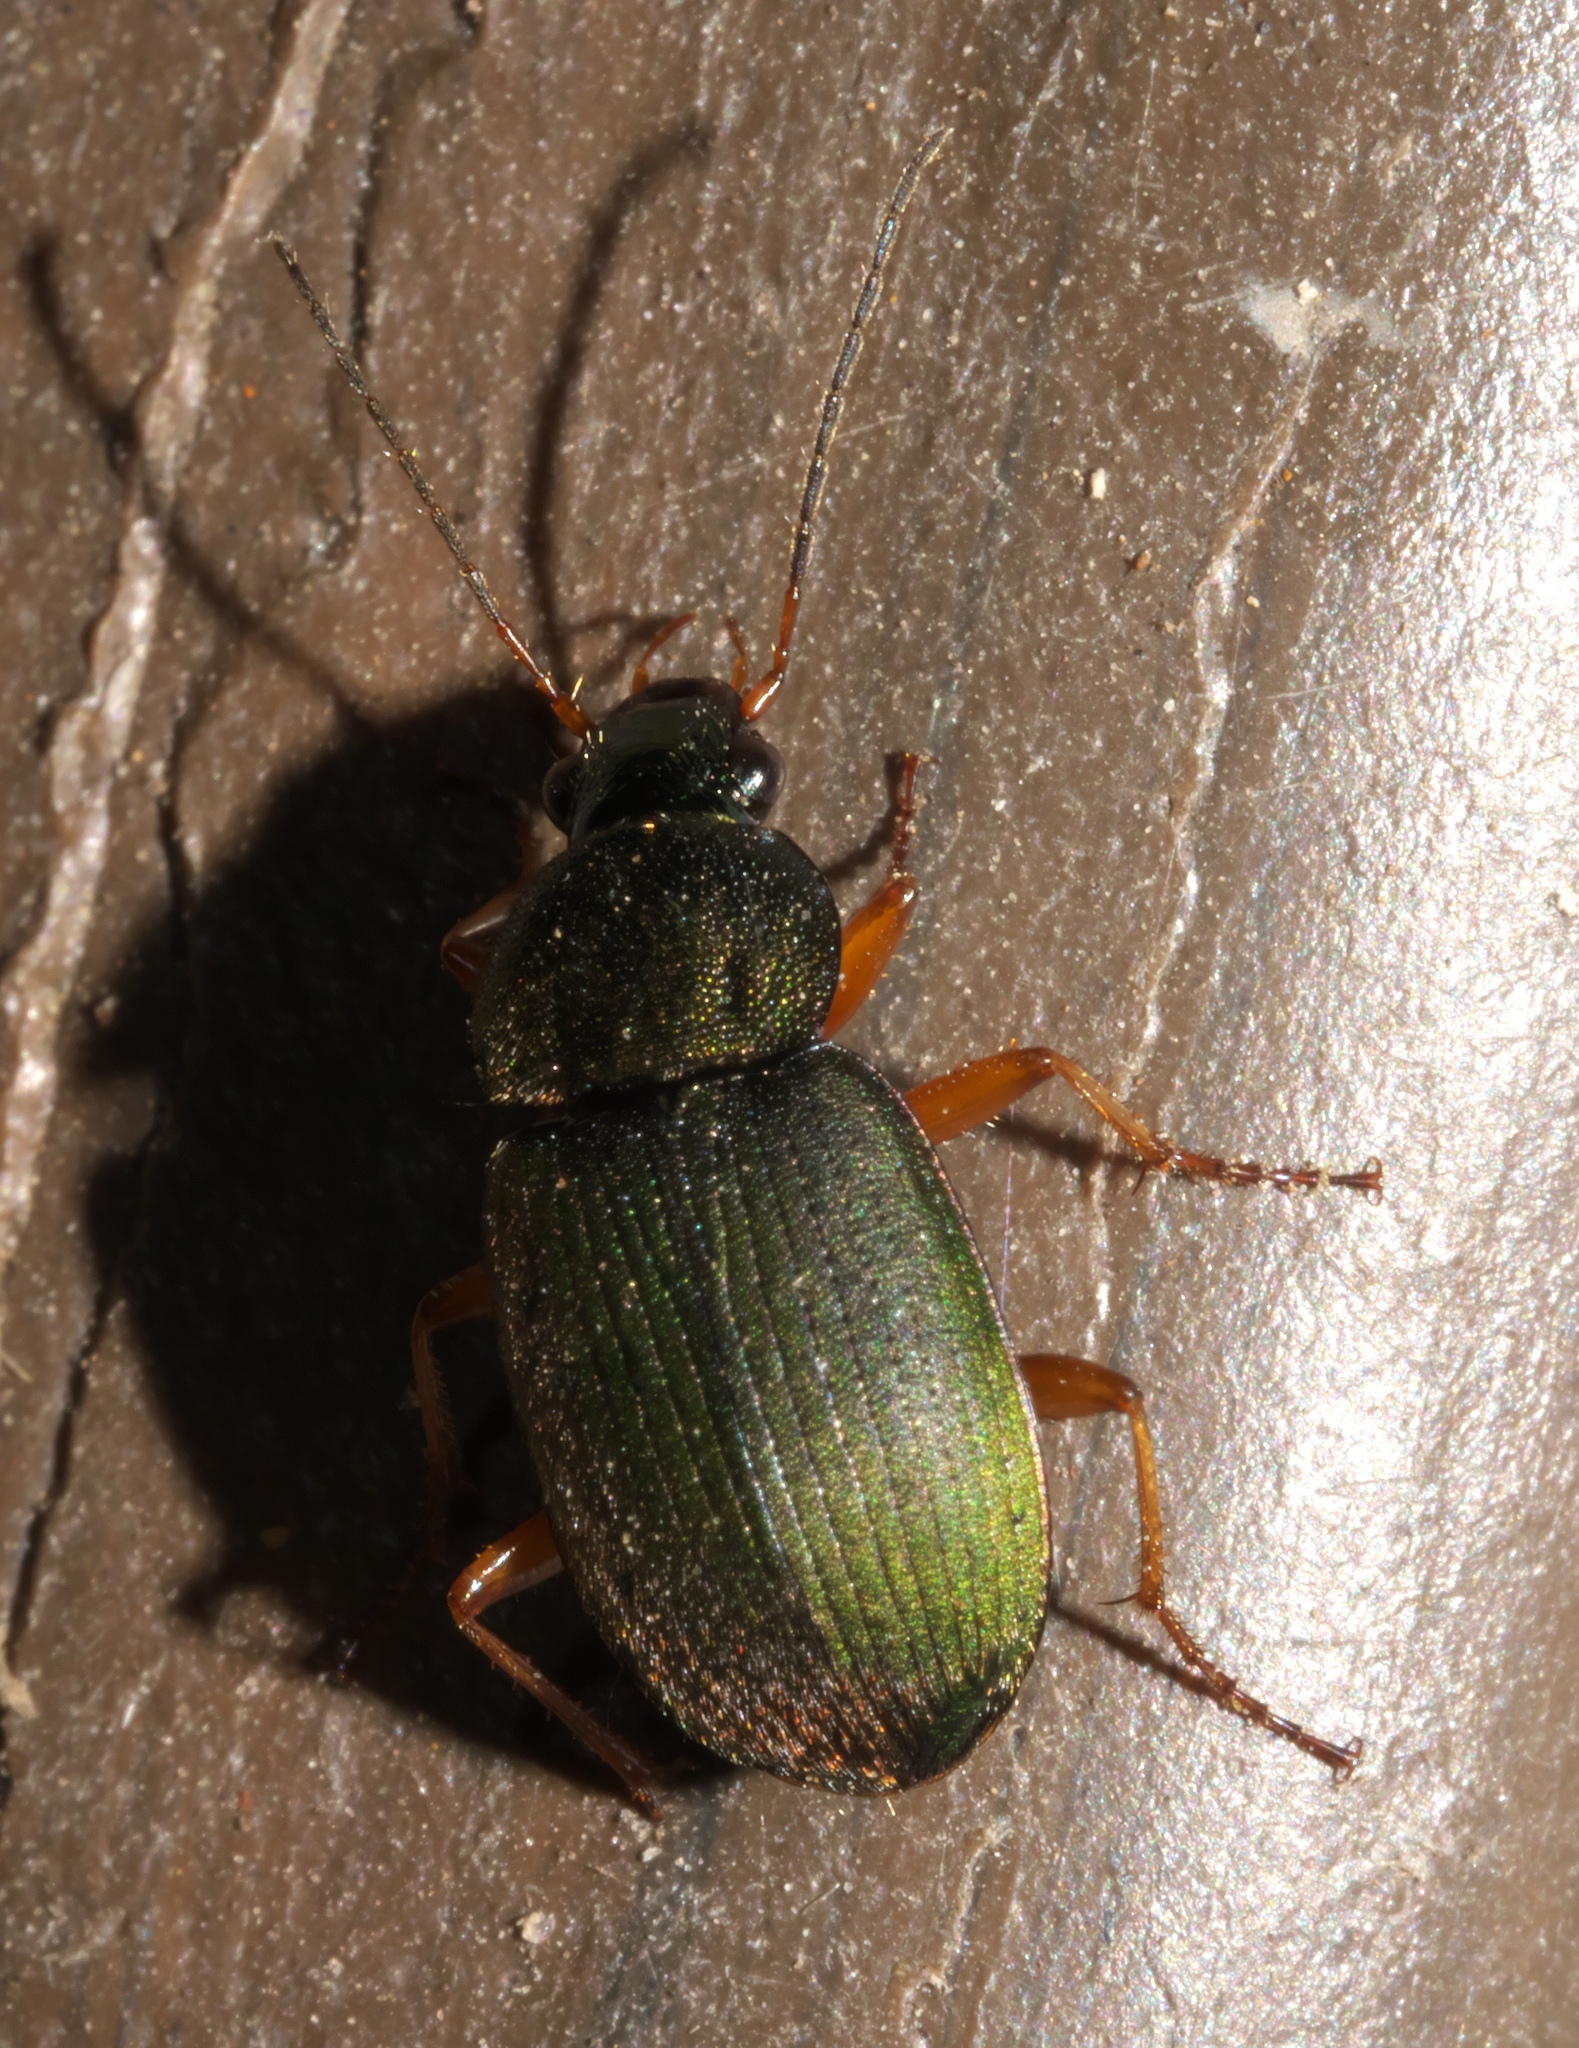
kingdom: Animalia
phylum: Arthropoda
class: Insecta
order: Coleoptera
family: Carabidae
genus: Chlaenius
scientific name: Chlaenius lithophilus
